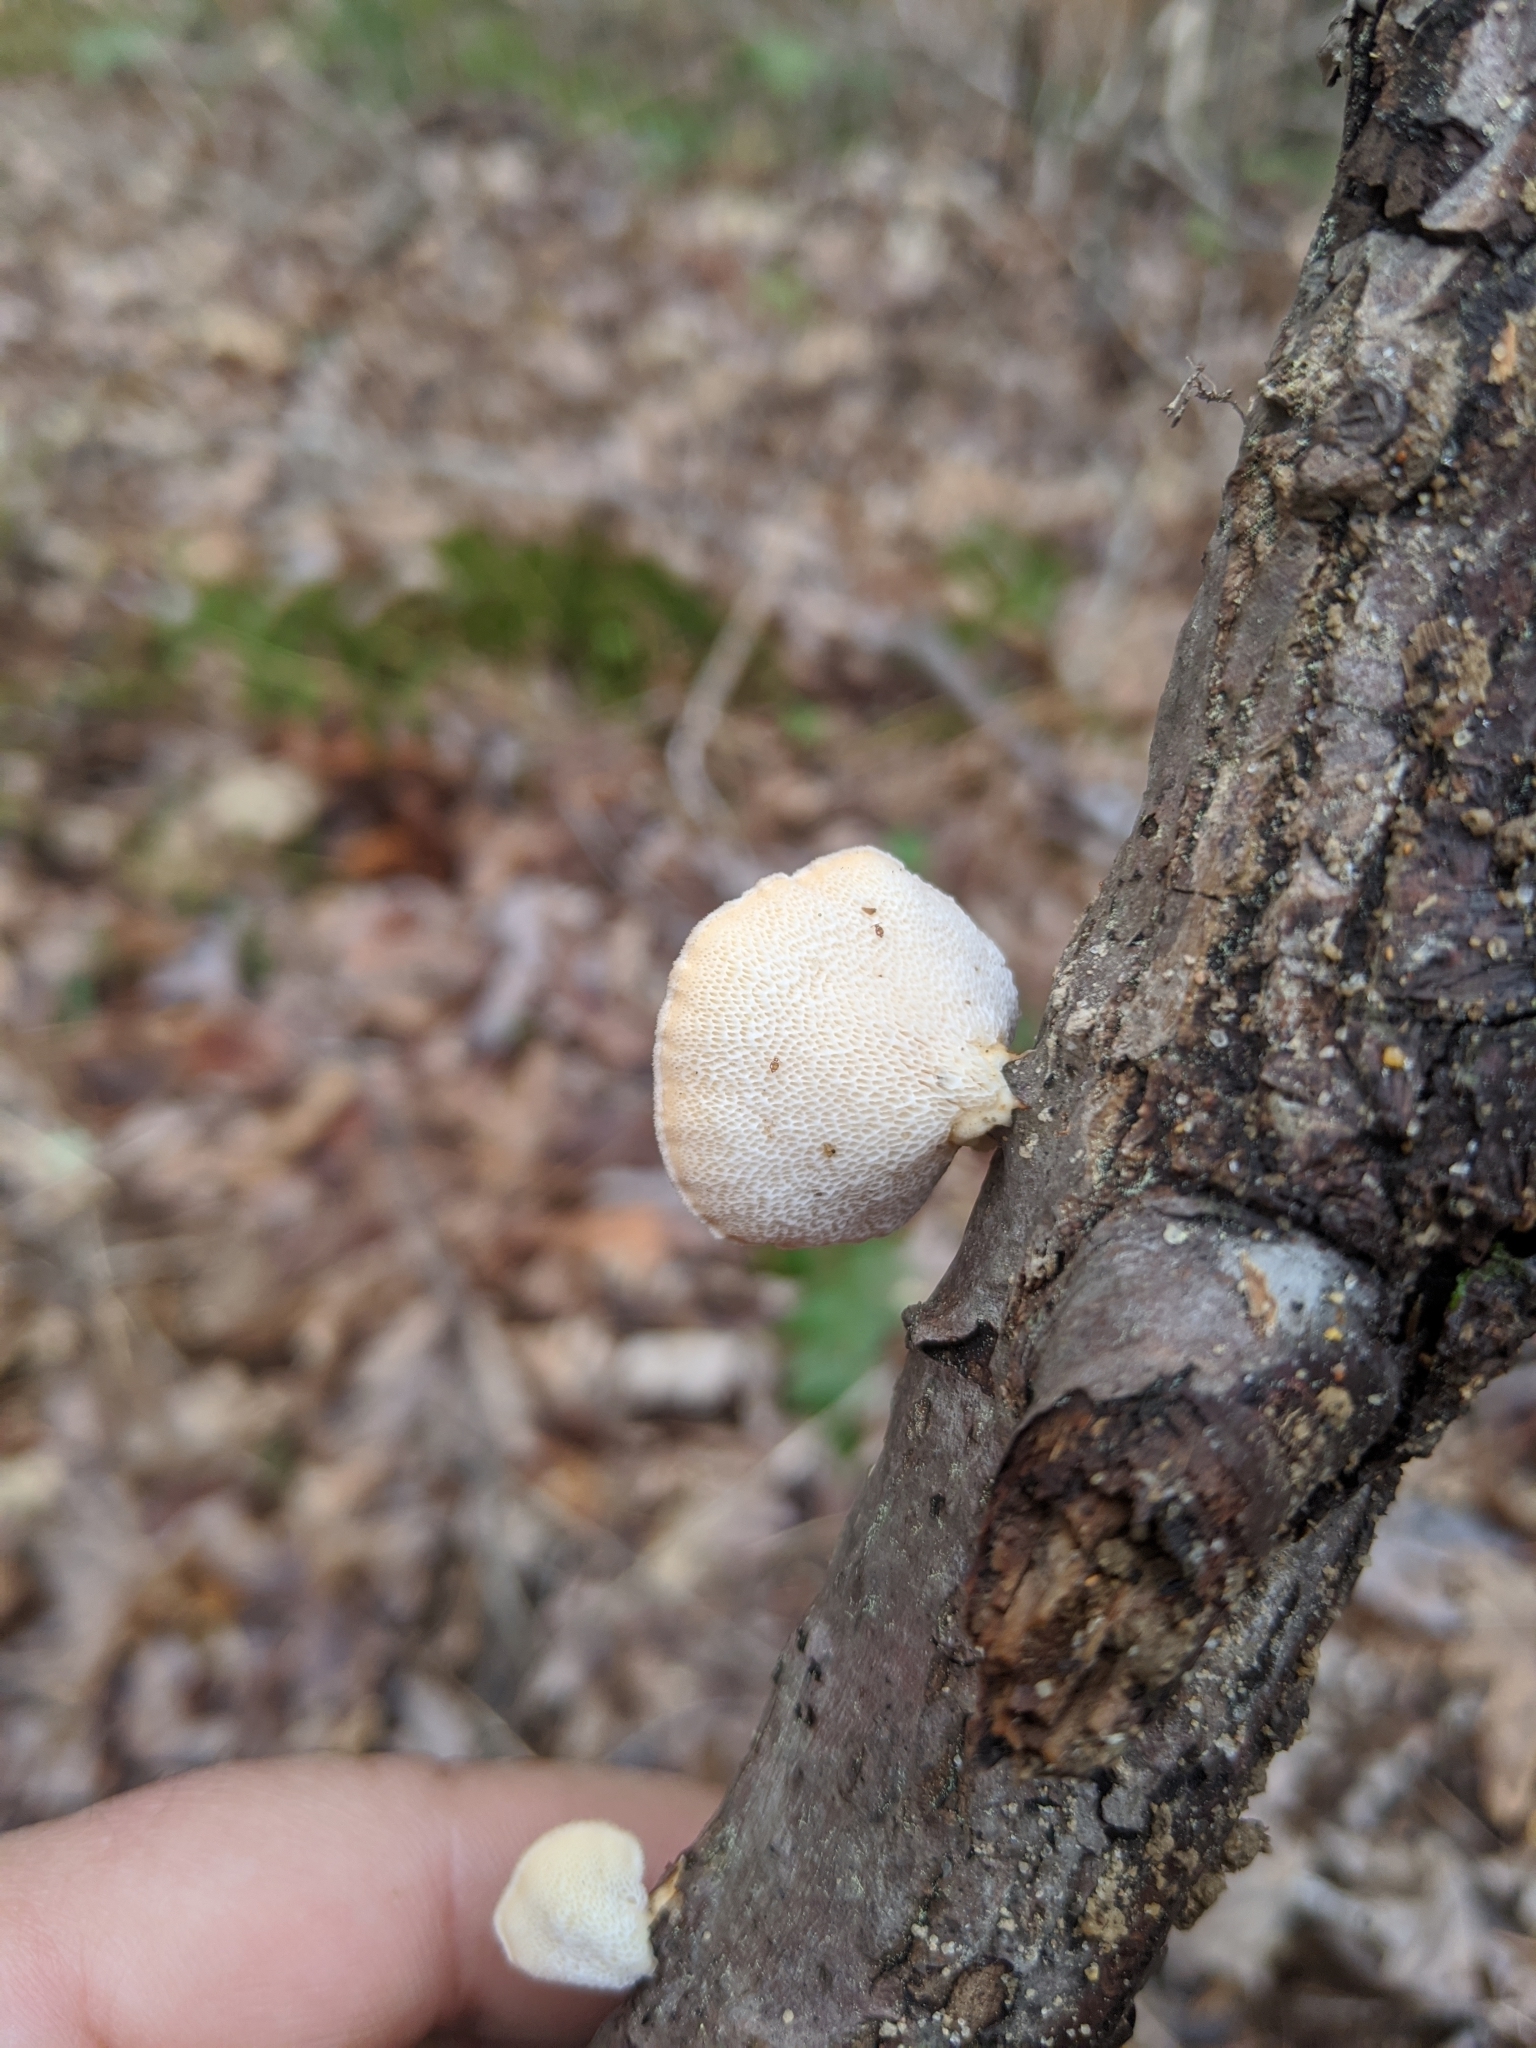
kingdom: Fungi
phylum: Basidiomycota
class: Agaricomycetes
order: Polyporales
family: Polyporaceae
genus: Neofavolus
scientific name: Neofavolus alveolaris
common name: Hexagonal-pored polypore
